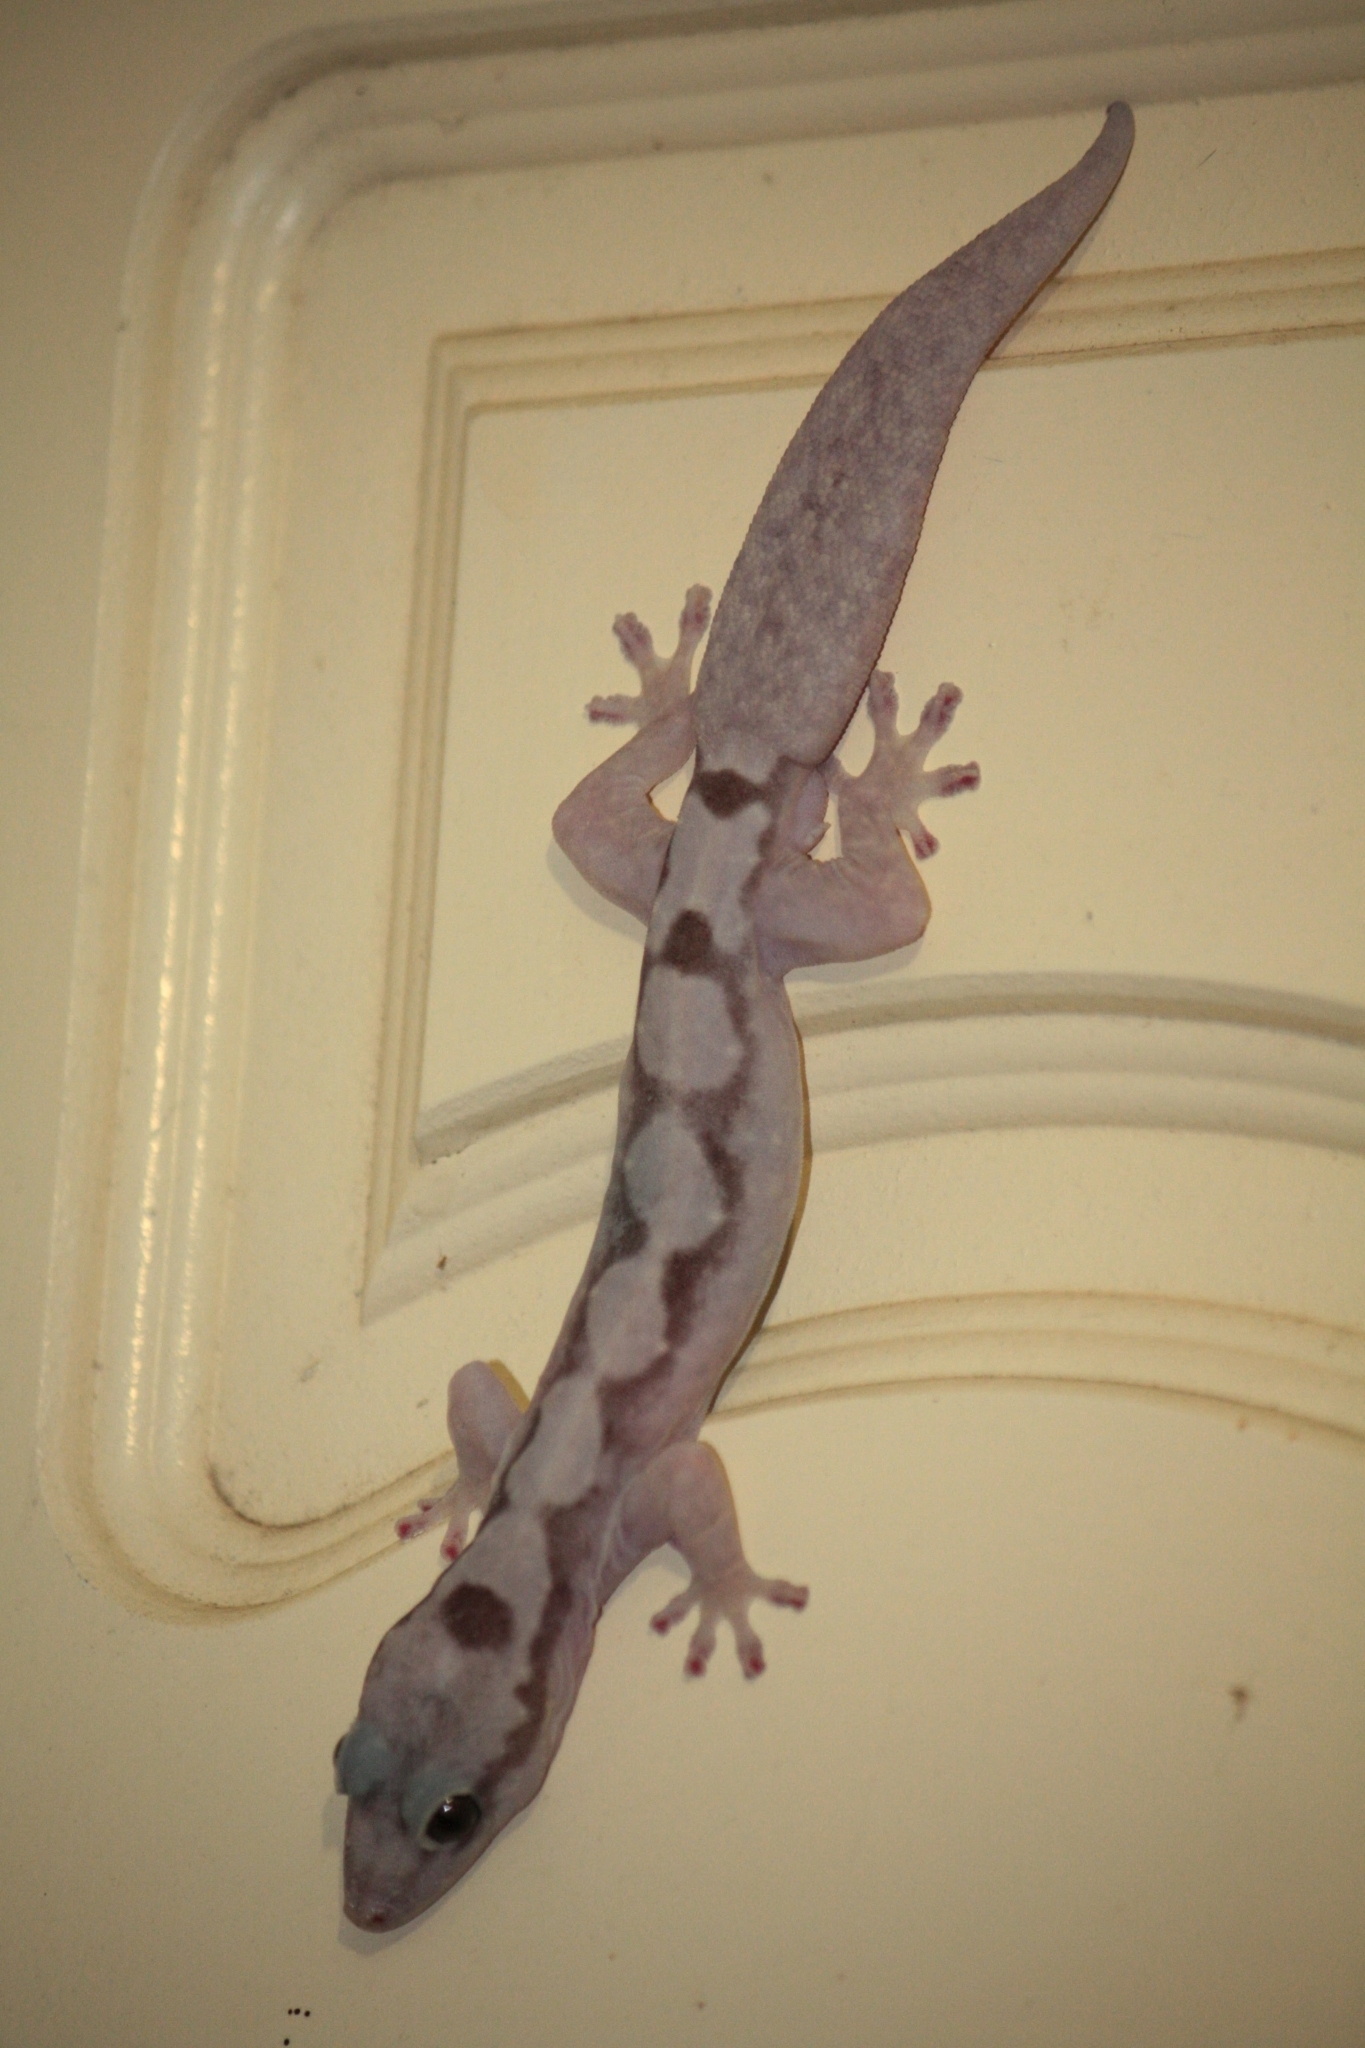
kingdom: Animalia
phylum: Chordata
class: Squamata
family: Diplodactylidae
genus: Nebulifera
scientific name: Nebulifera robusta
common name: Robust gecko
